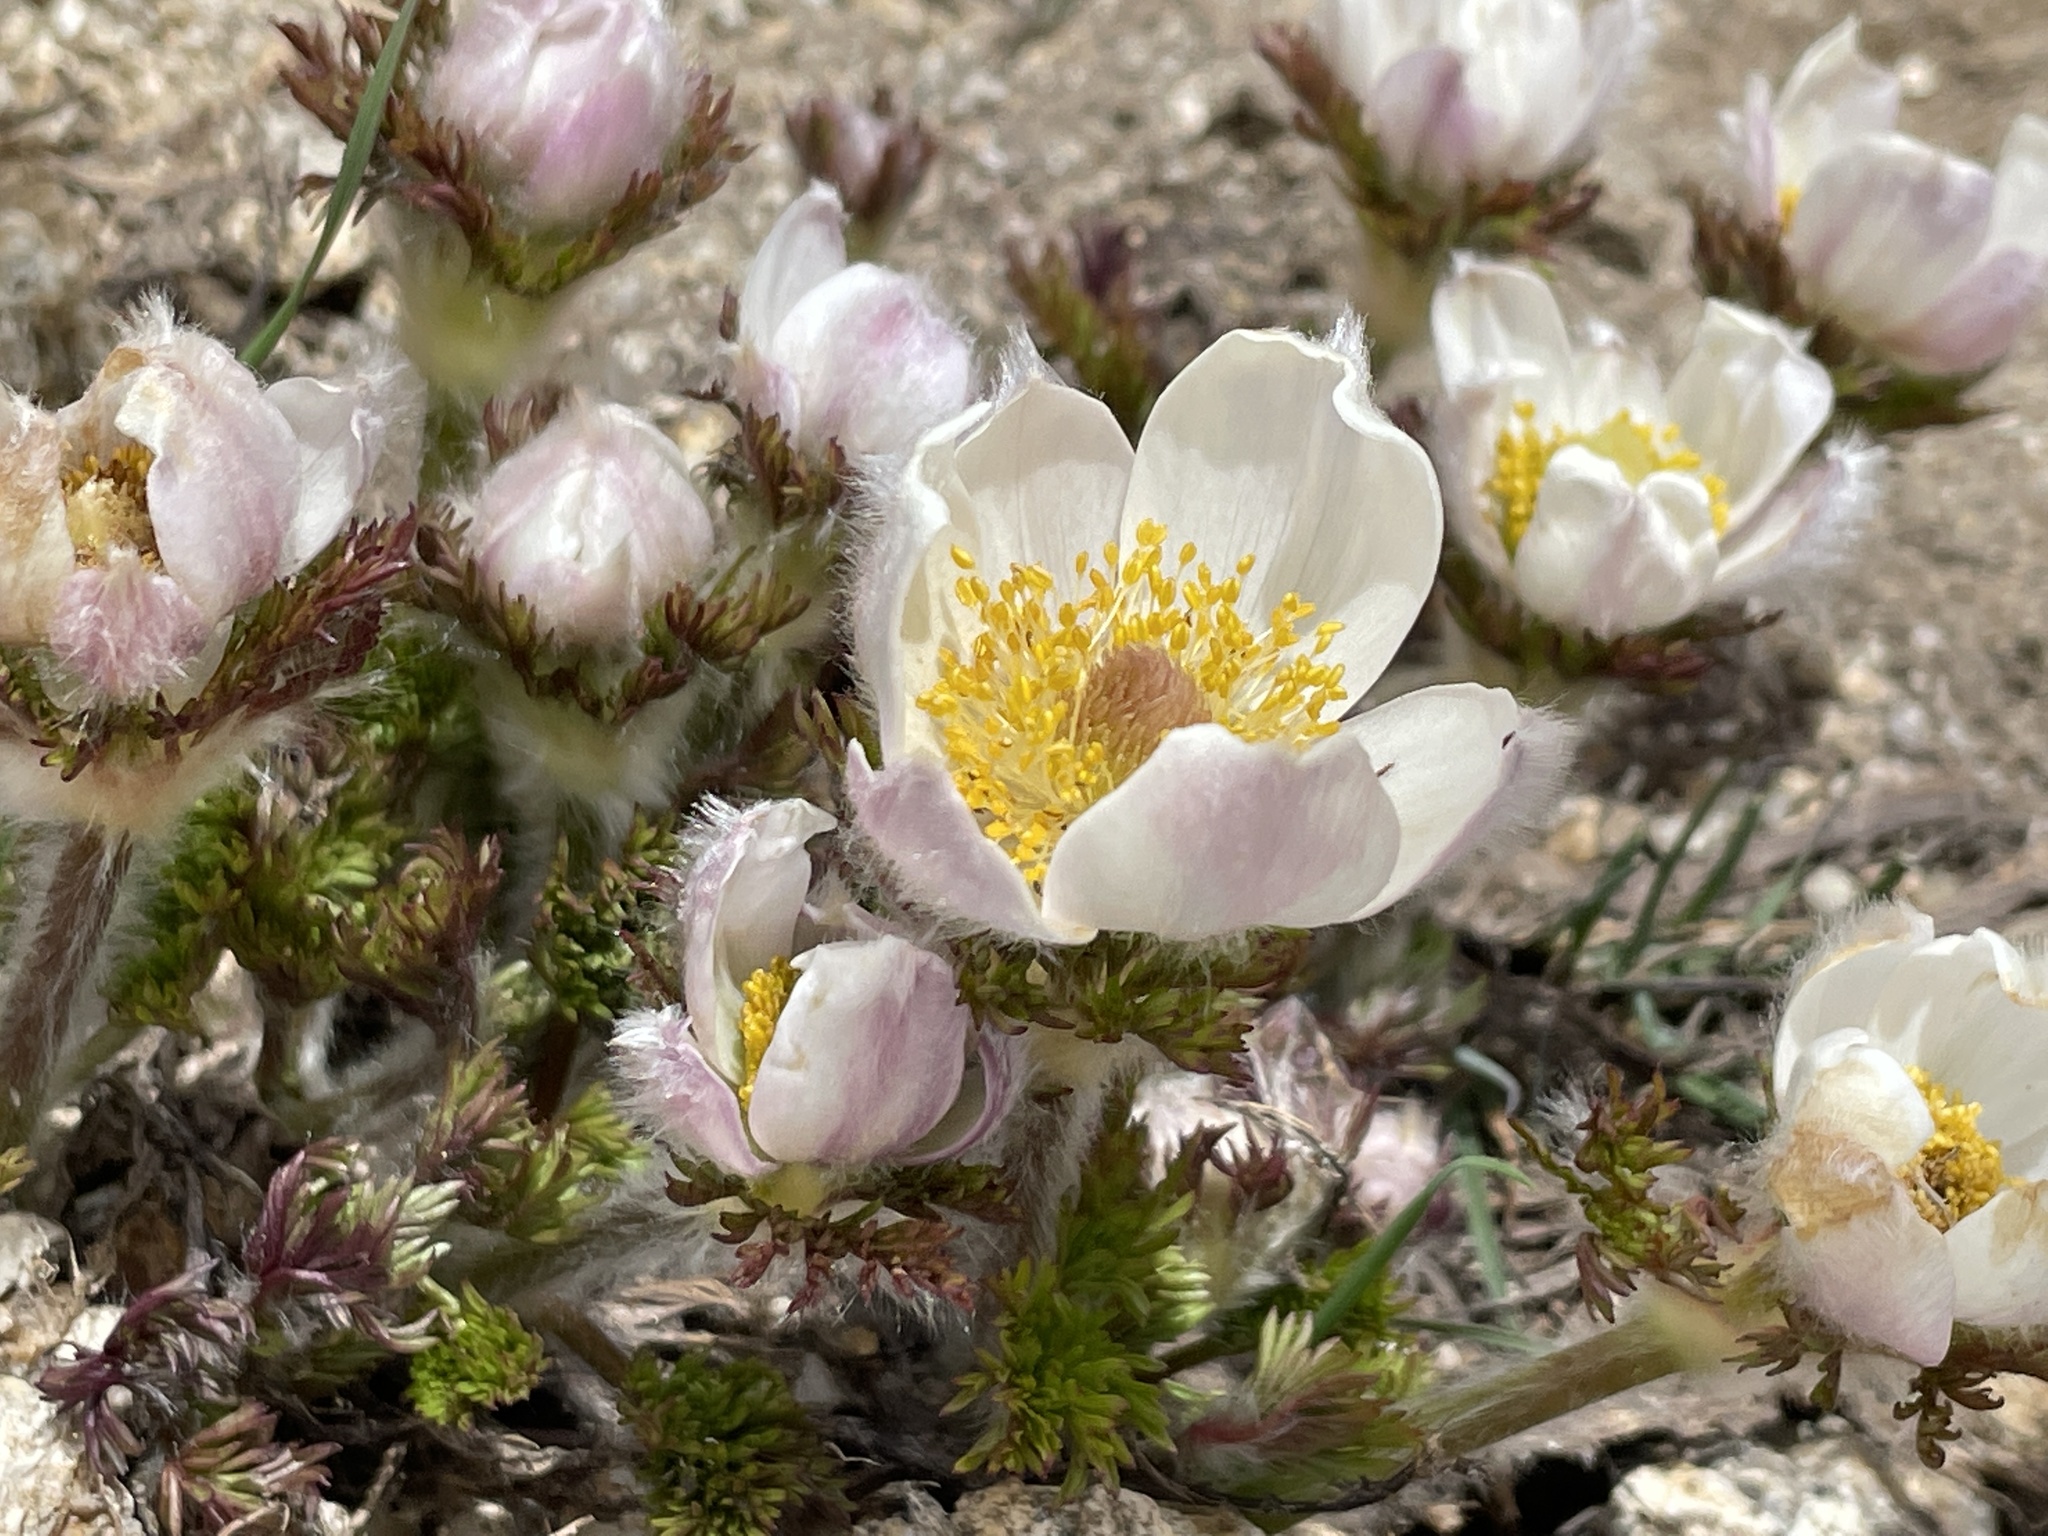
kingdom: Plantae
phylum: Tracheophyta
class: Magnoliopsida
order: Ranunculales
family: Ranunculaceae
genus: Pulsatilla
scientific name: Pulsatilla occidentalis
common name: Mountain pasqueflower
